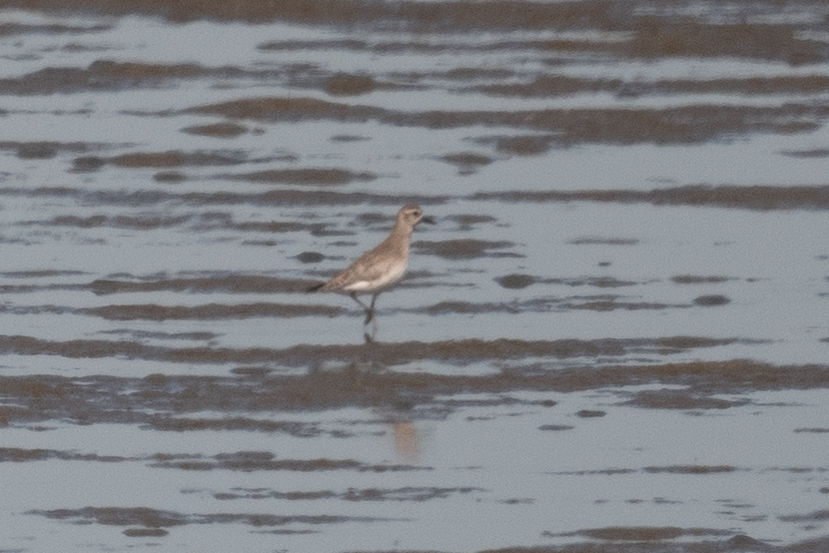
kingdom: Animalia
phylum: Chordata
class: Aves
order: Charadriiformes
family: Charadriidae
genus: Pluvialis
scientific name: Pluvialis squatarola
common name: Grey plover
